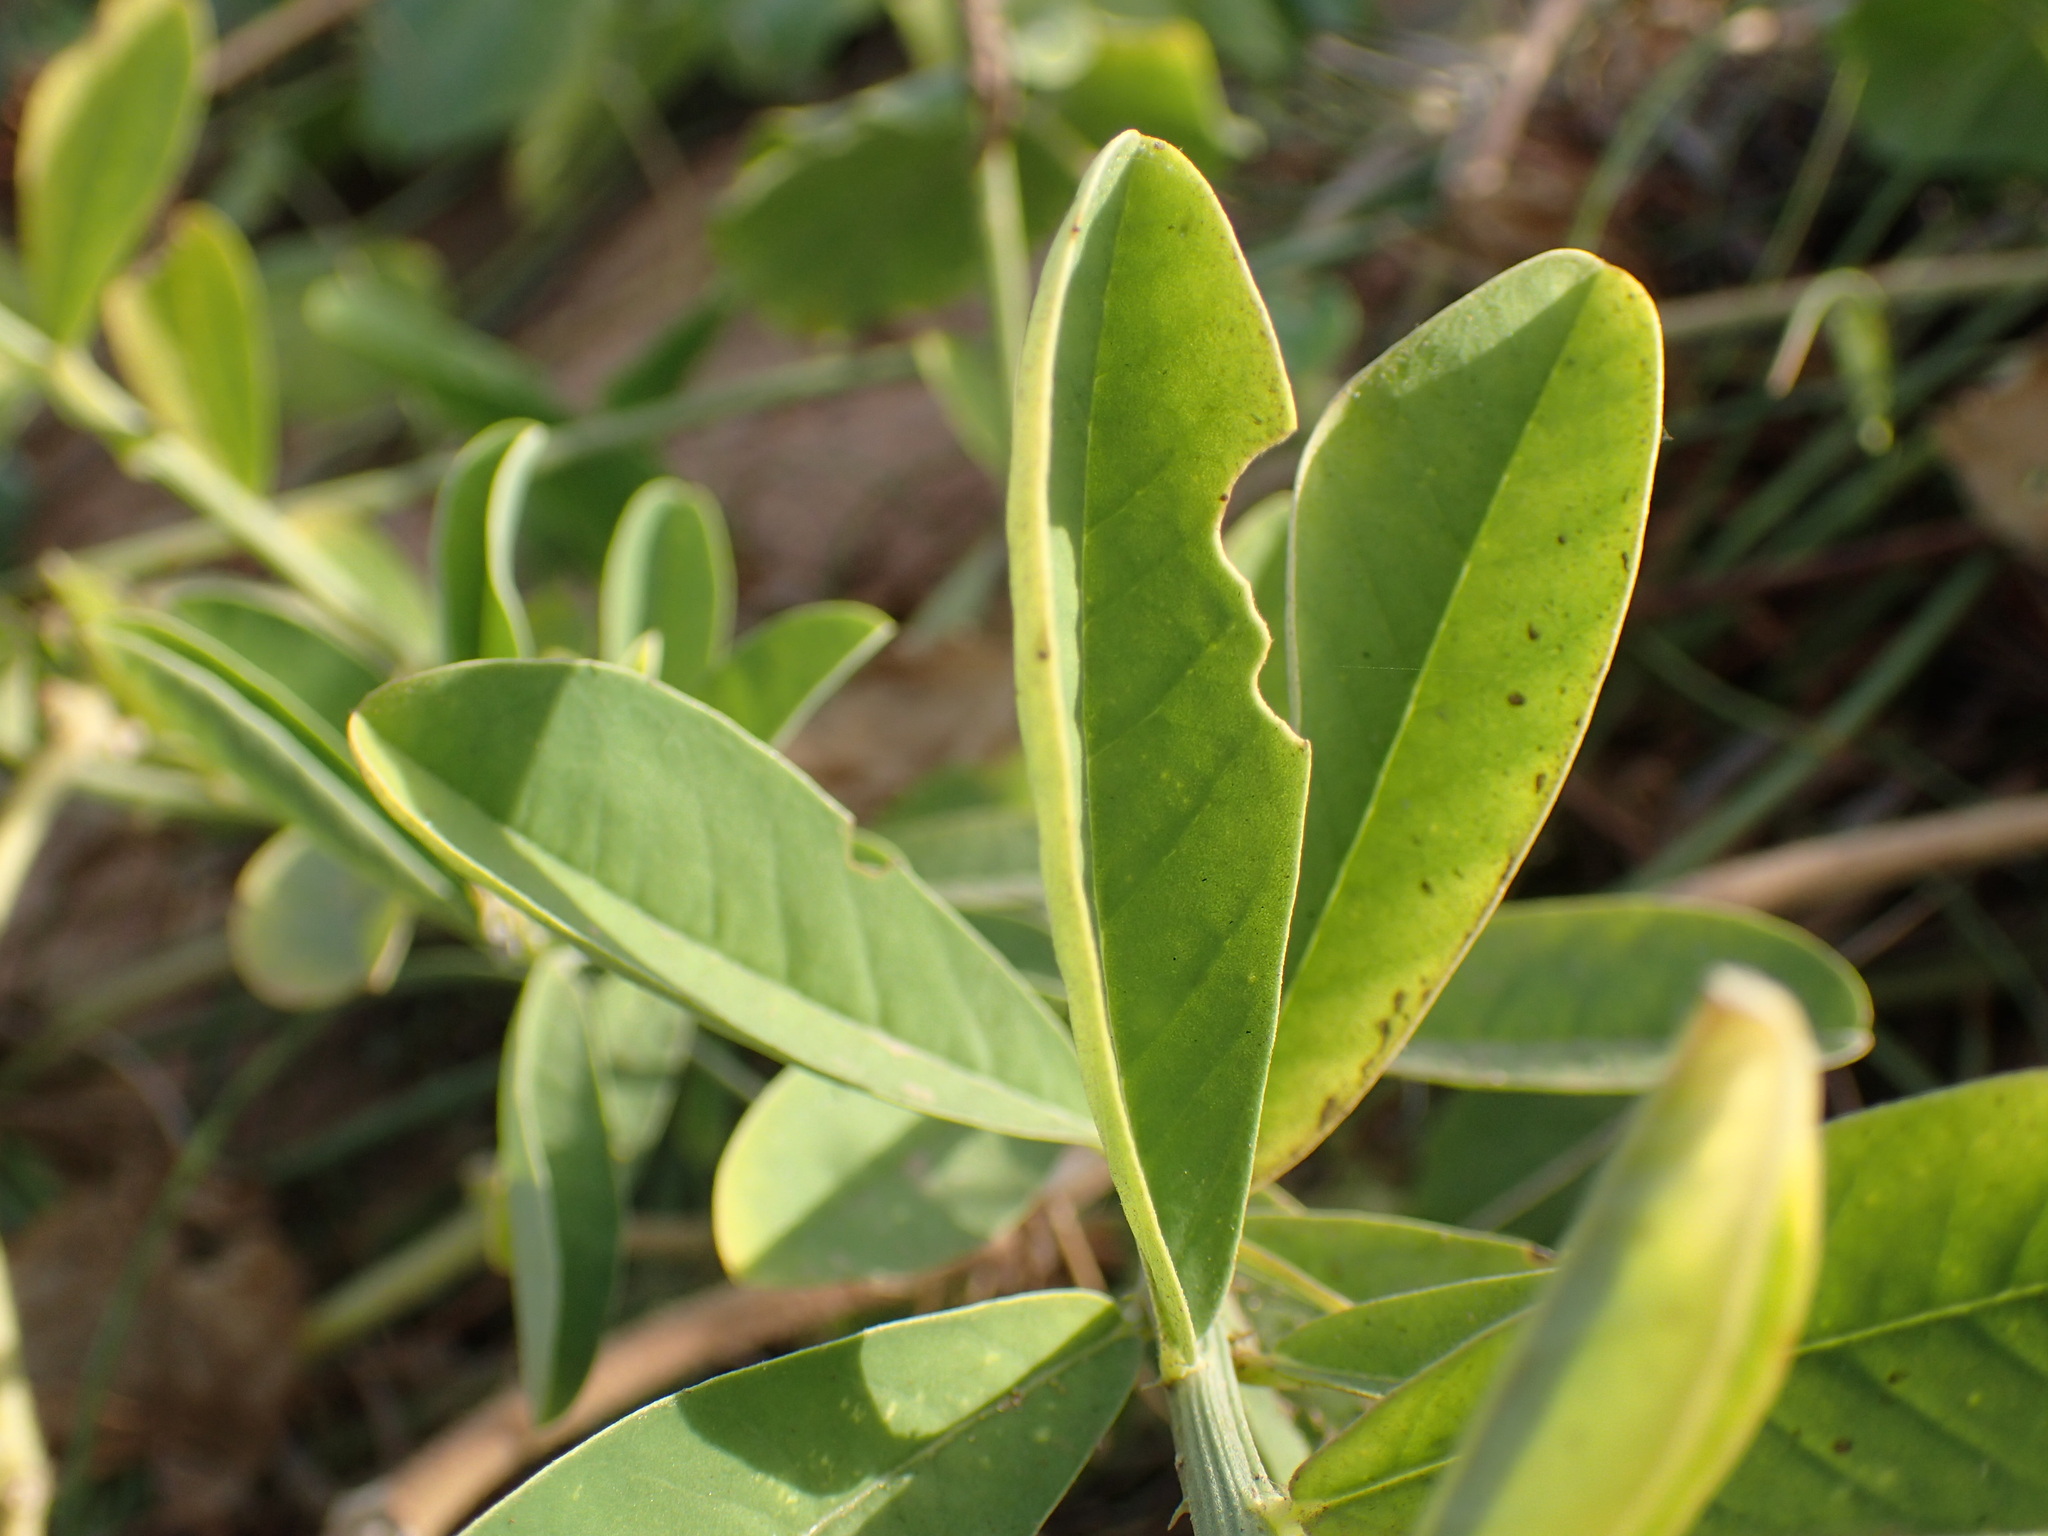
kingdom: Plantae
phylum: Tracheophyta
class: Magnoliopsida
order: Fabales
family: Fabaceae
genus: Crotalaria
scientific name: Crotalaria retusa
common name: Rattleweed
